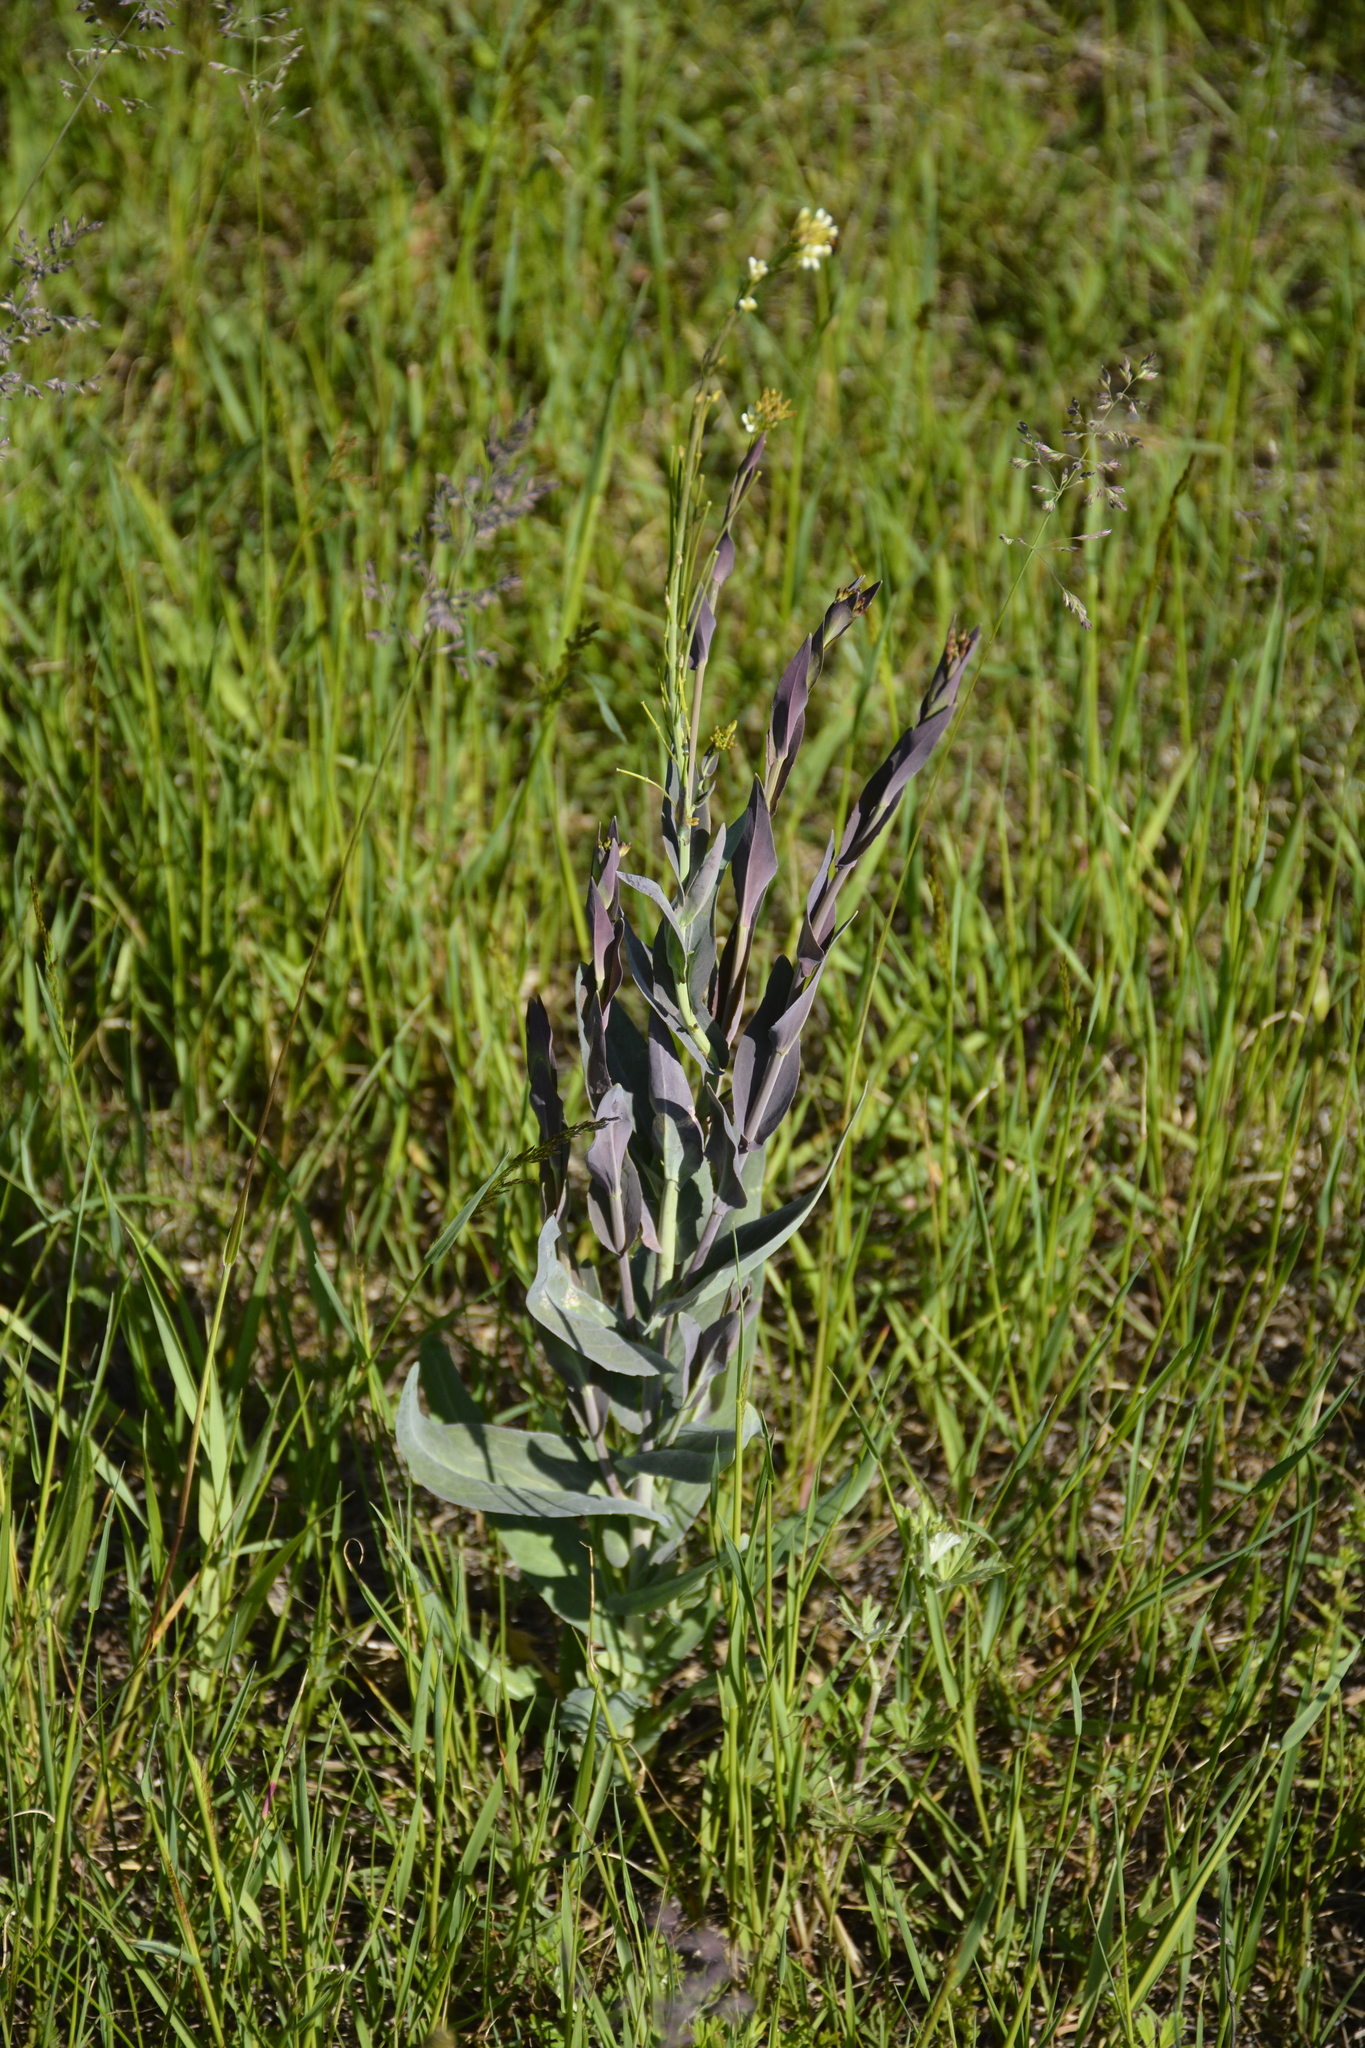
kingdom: Plantae
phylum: Tracheophyta
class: Magnoliopsida
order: Brassicales
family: Brassicaceae
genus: Turritis
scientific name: Turritis glabra
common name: Tower rockcress
